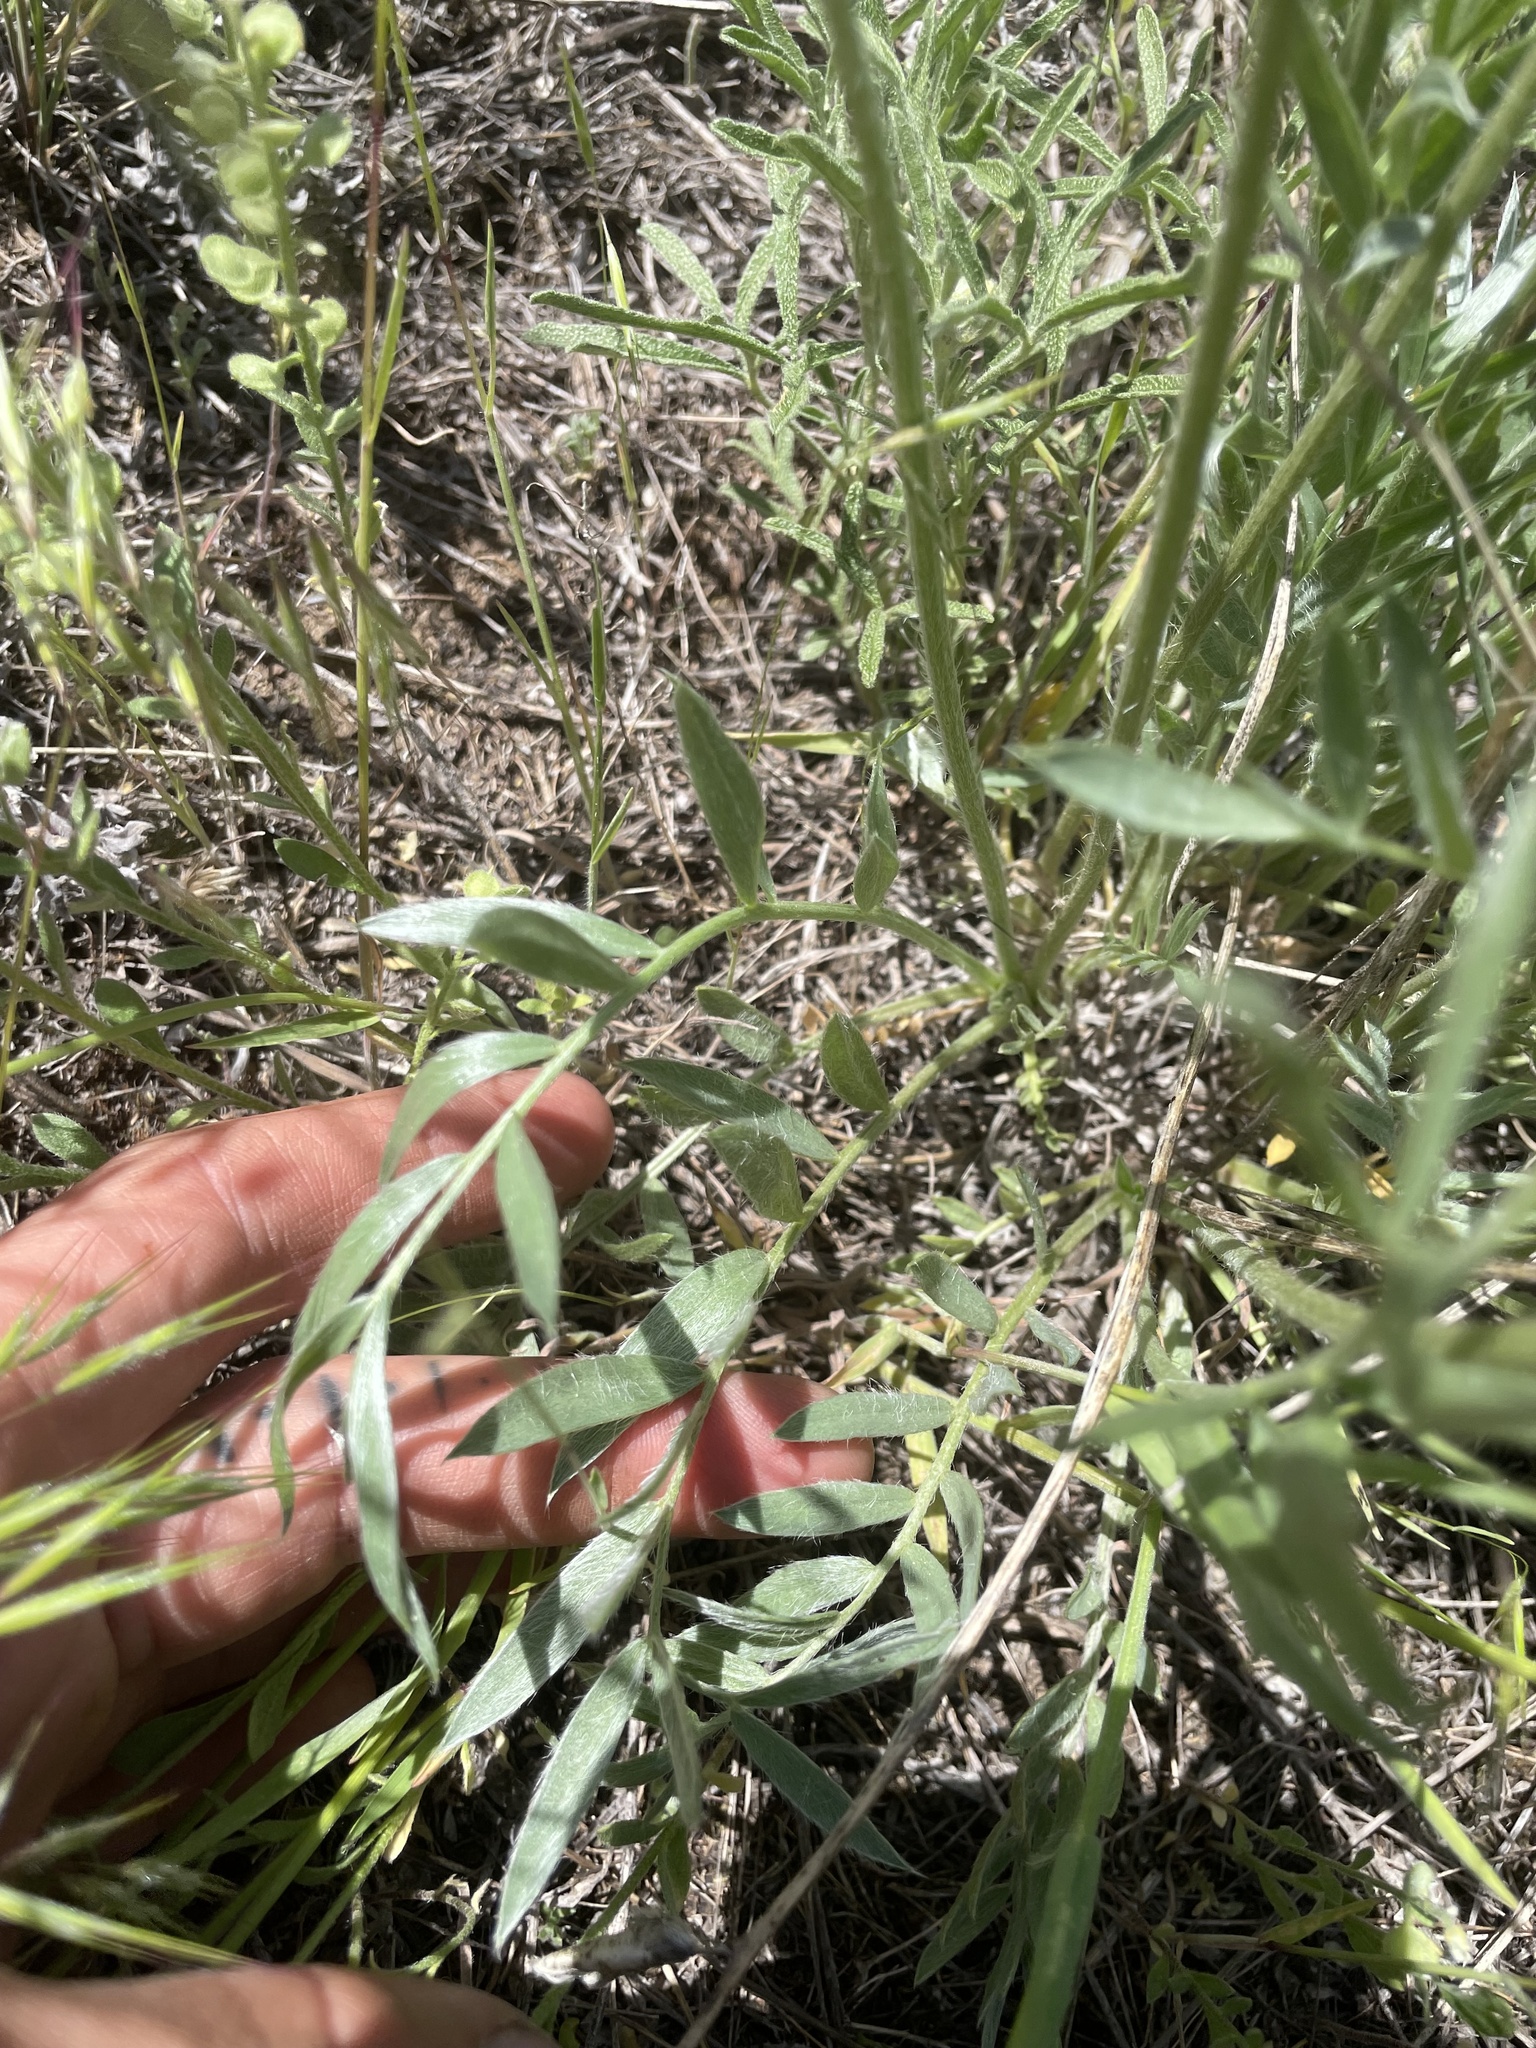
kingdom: Plantae
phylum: Tracheophyta
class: Magnoliopsida
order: Fabales
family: Fabaceae
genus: Oxytropis
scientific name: Oxytropis lambertii
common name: Purple locoweed
